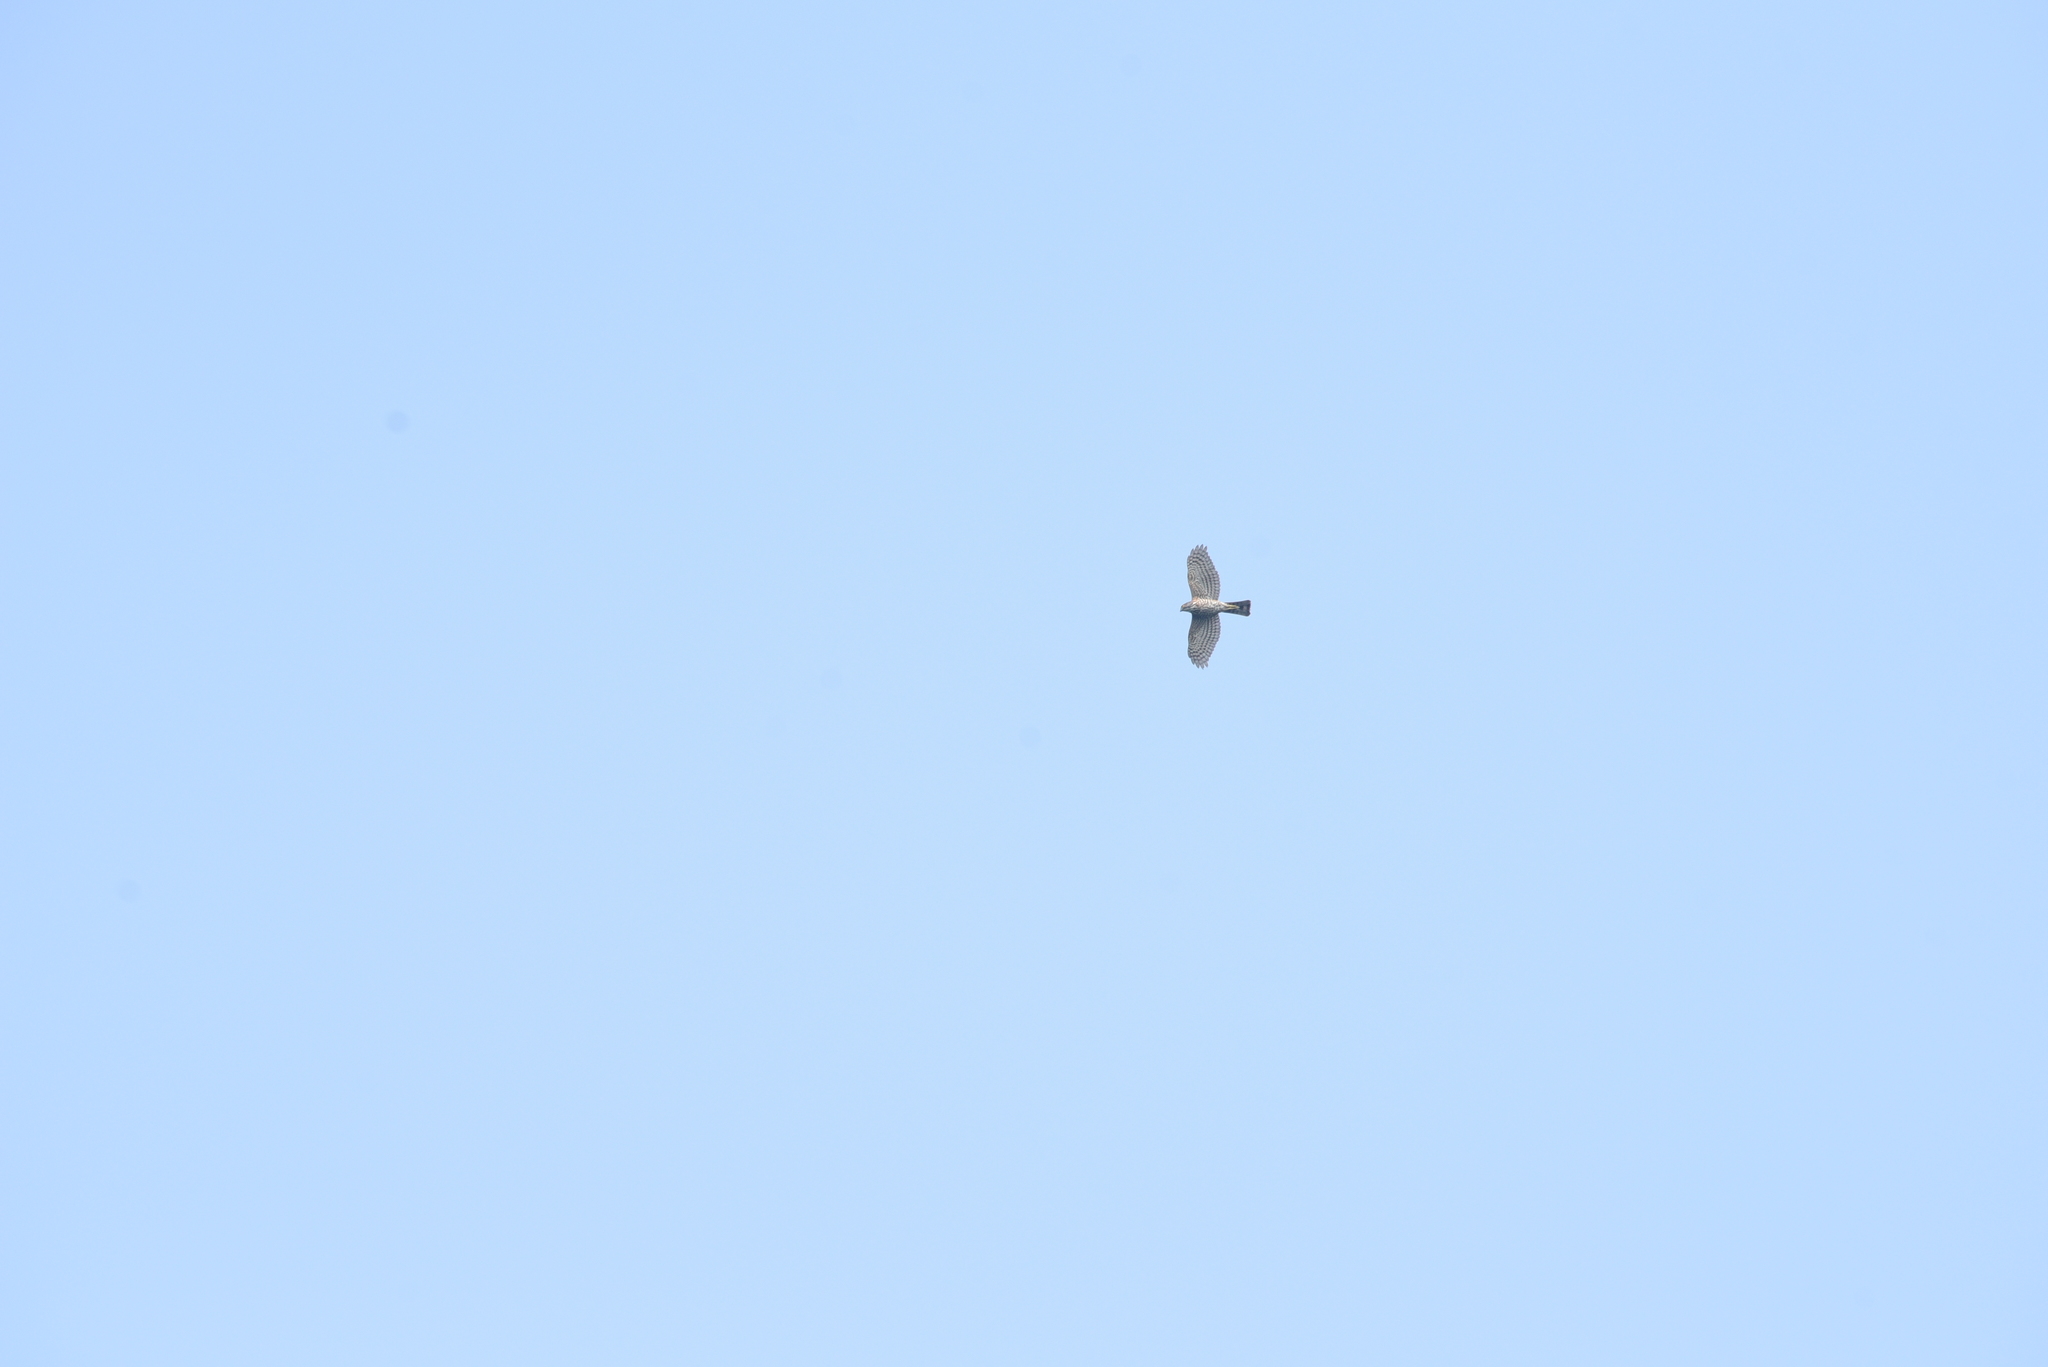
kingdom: Animalia
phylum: Chordata
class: Aves
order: Accipitriformes
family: Accipitridae
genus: Accipiter
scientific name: Accipiter virgatus
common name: Besra
